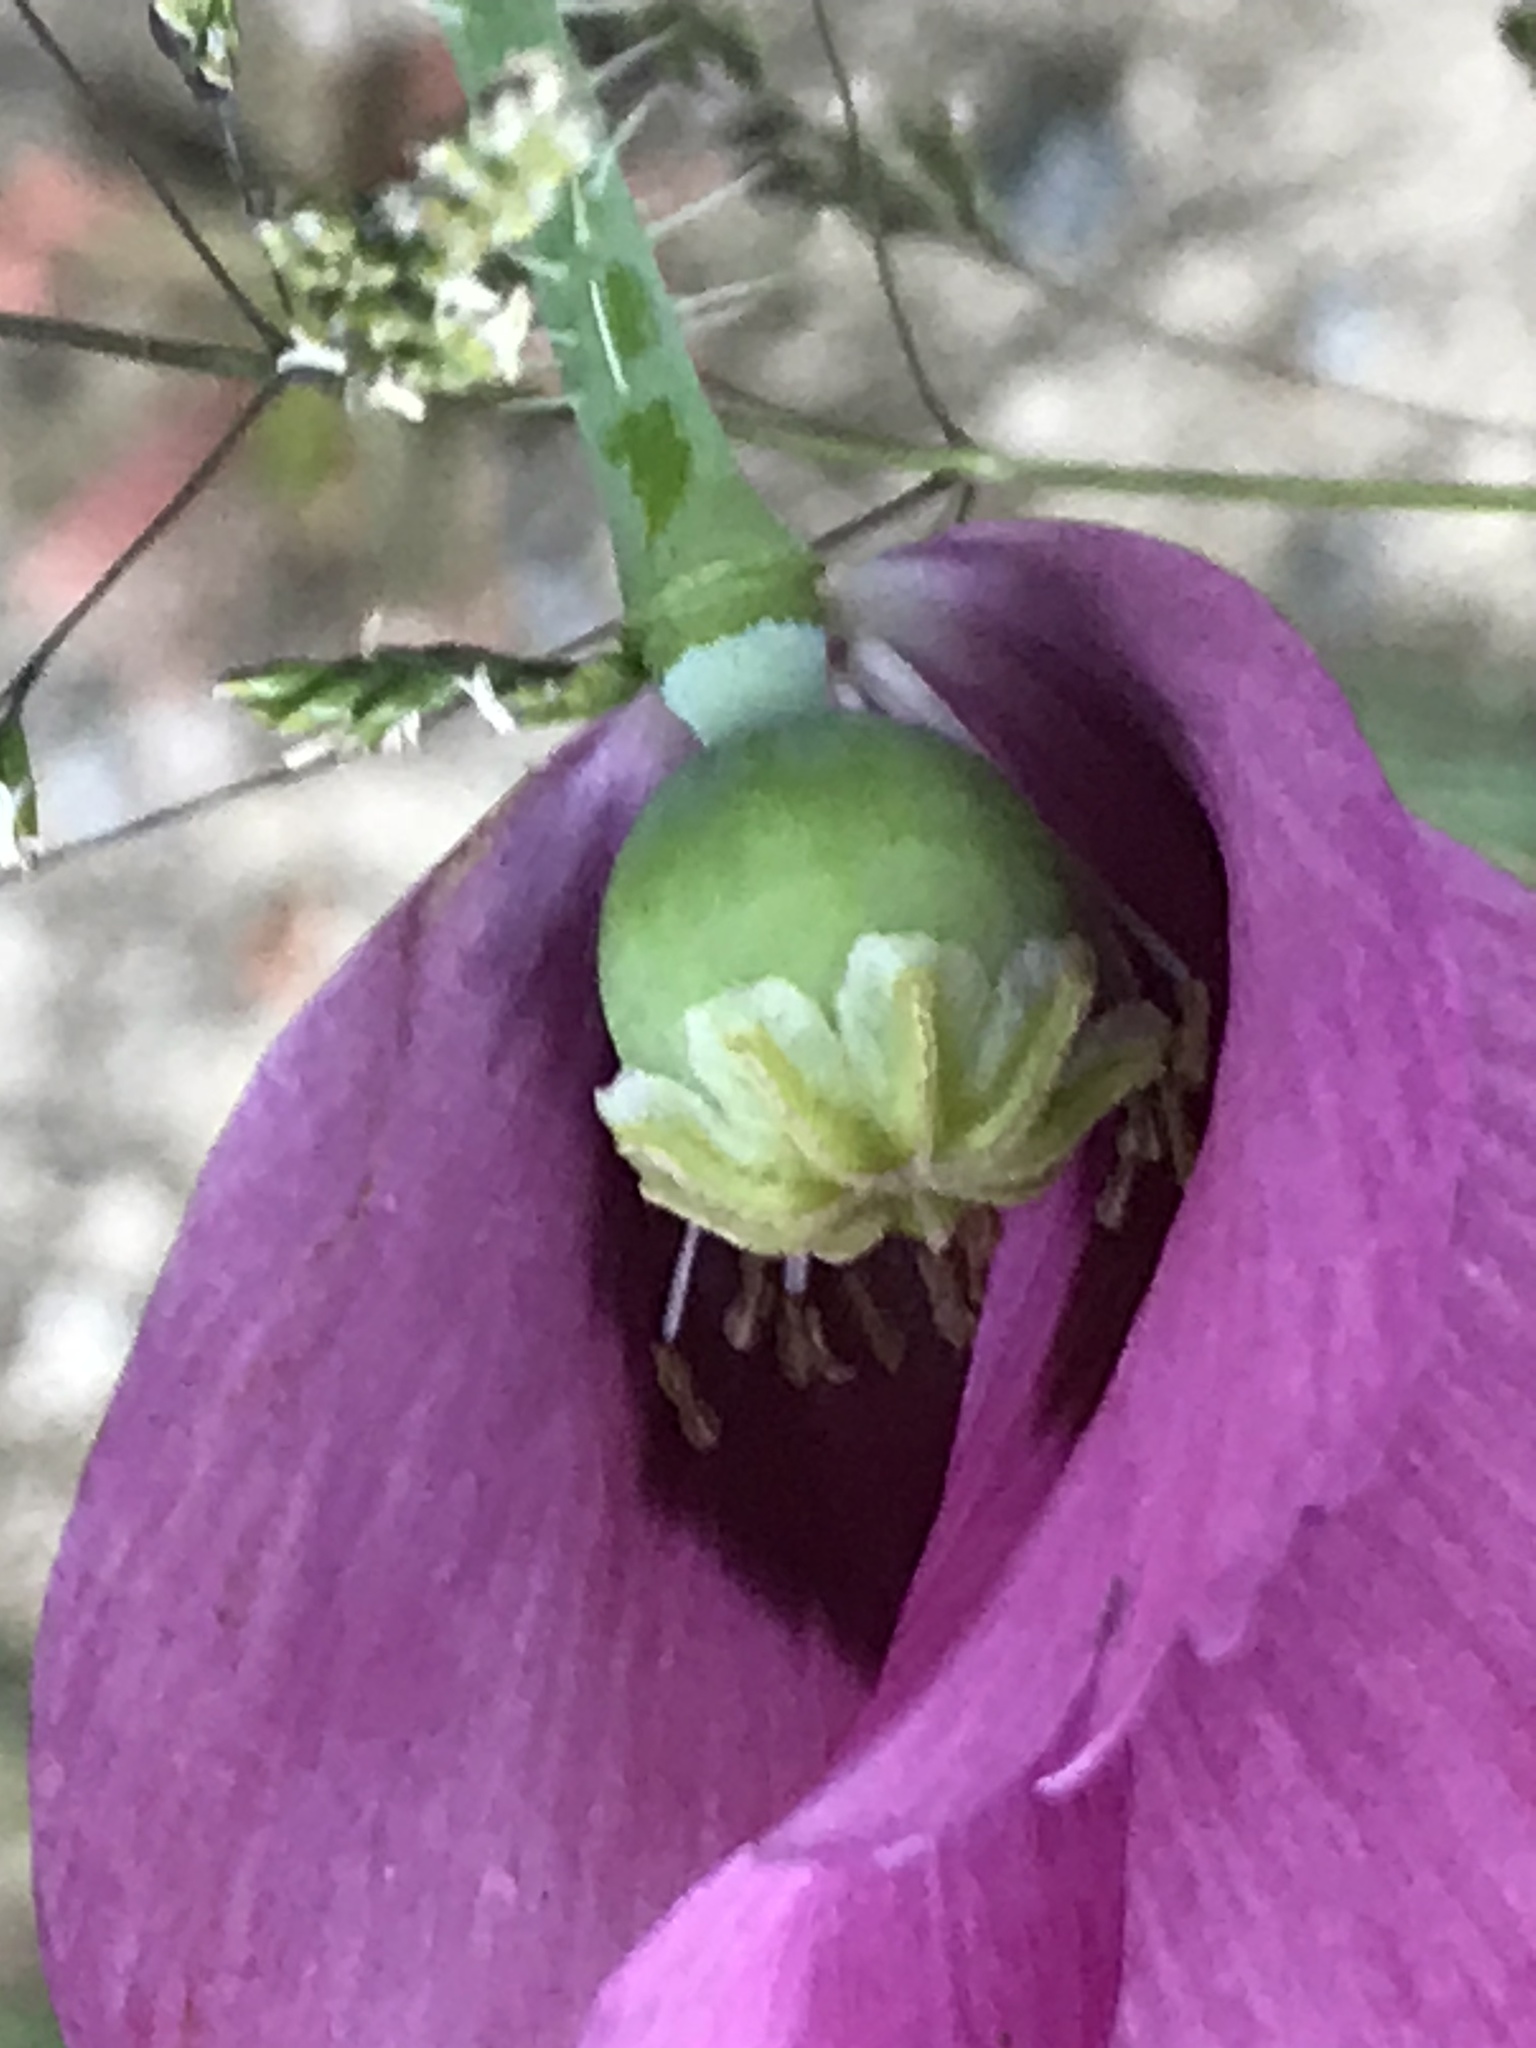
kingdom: Plantae
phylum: Tracheophyta
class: Magnoliopsida
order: Ranunculales
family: Papaveraceae
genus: Papaver
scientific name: Papaver somniferum
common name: Opium poppy
